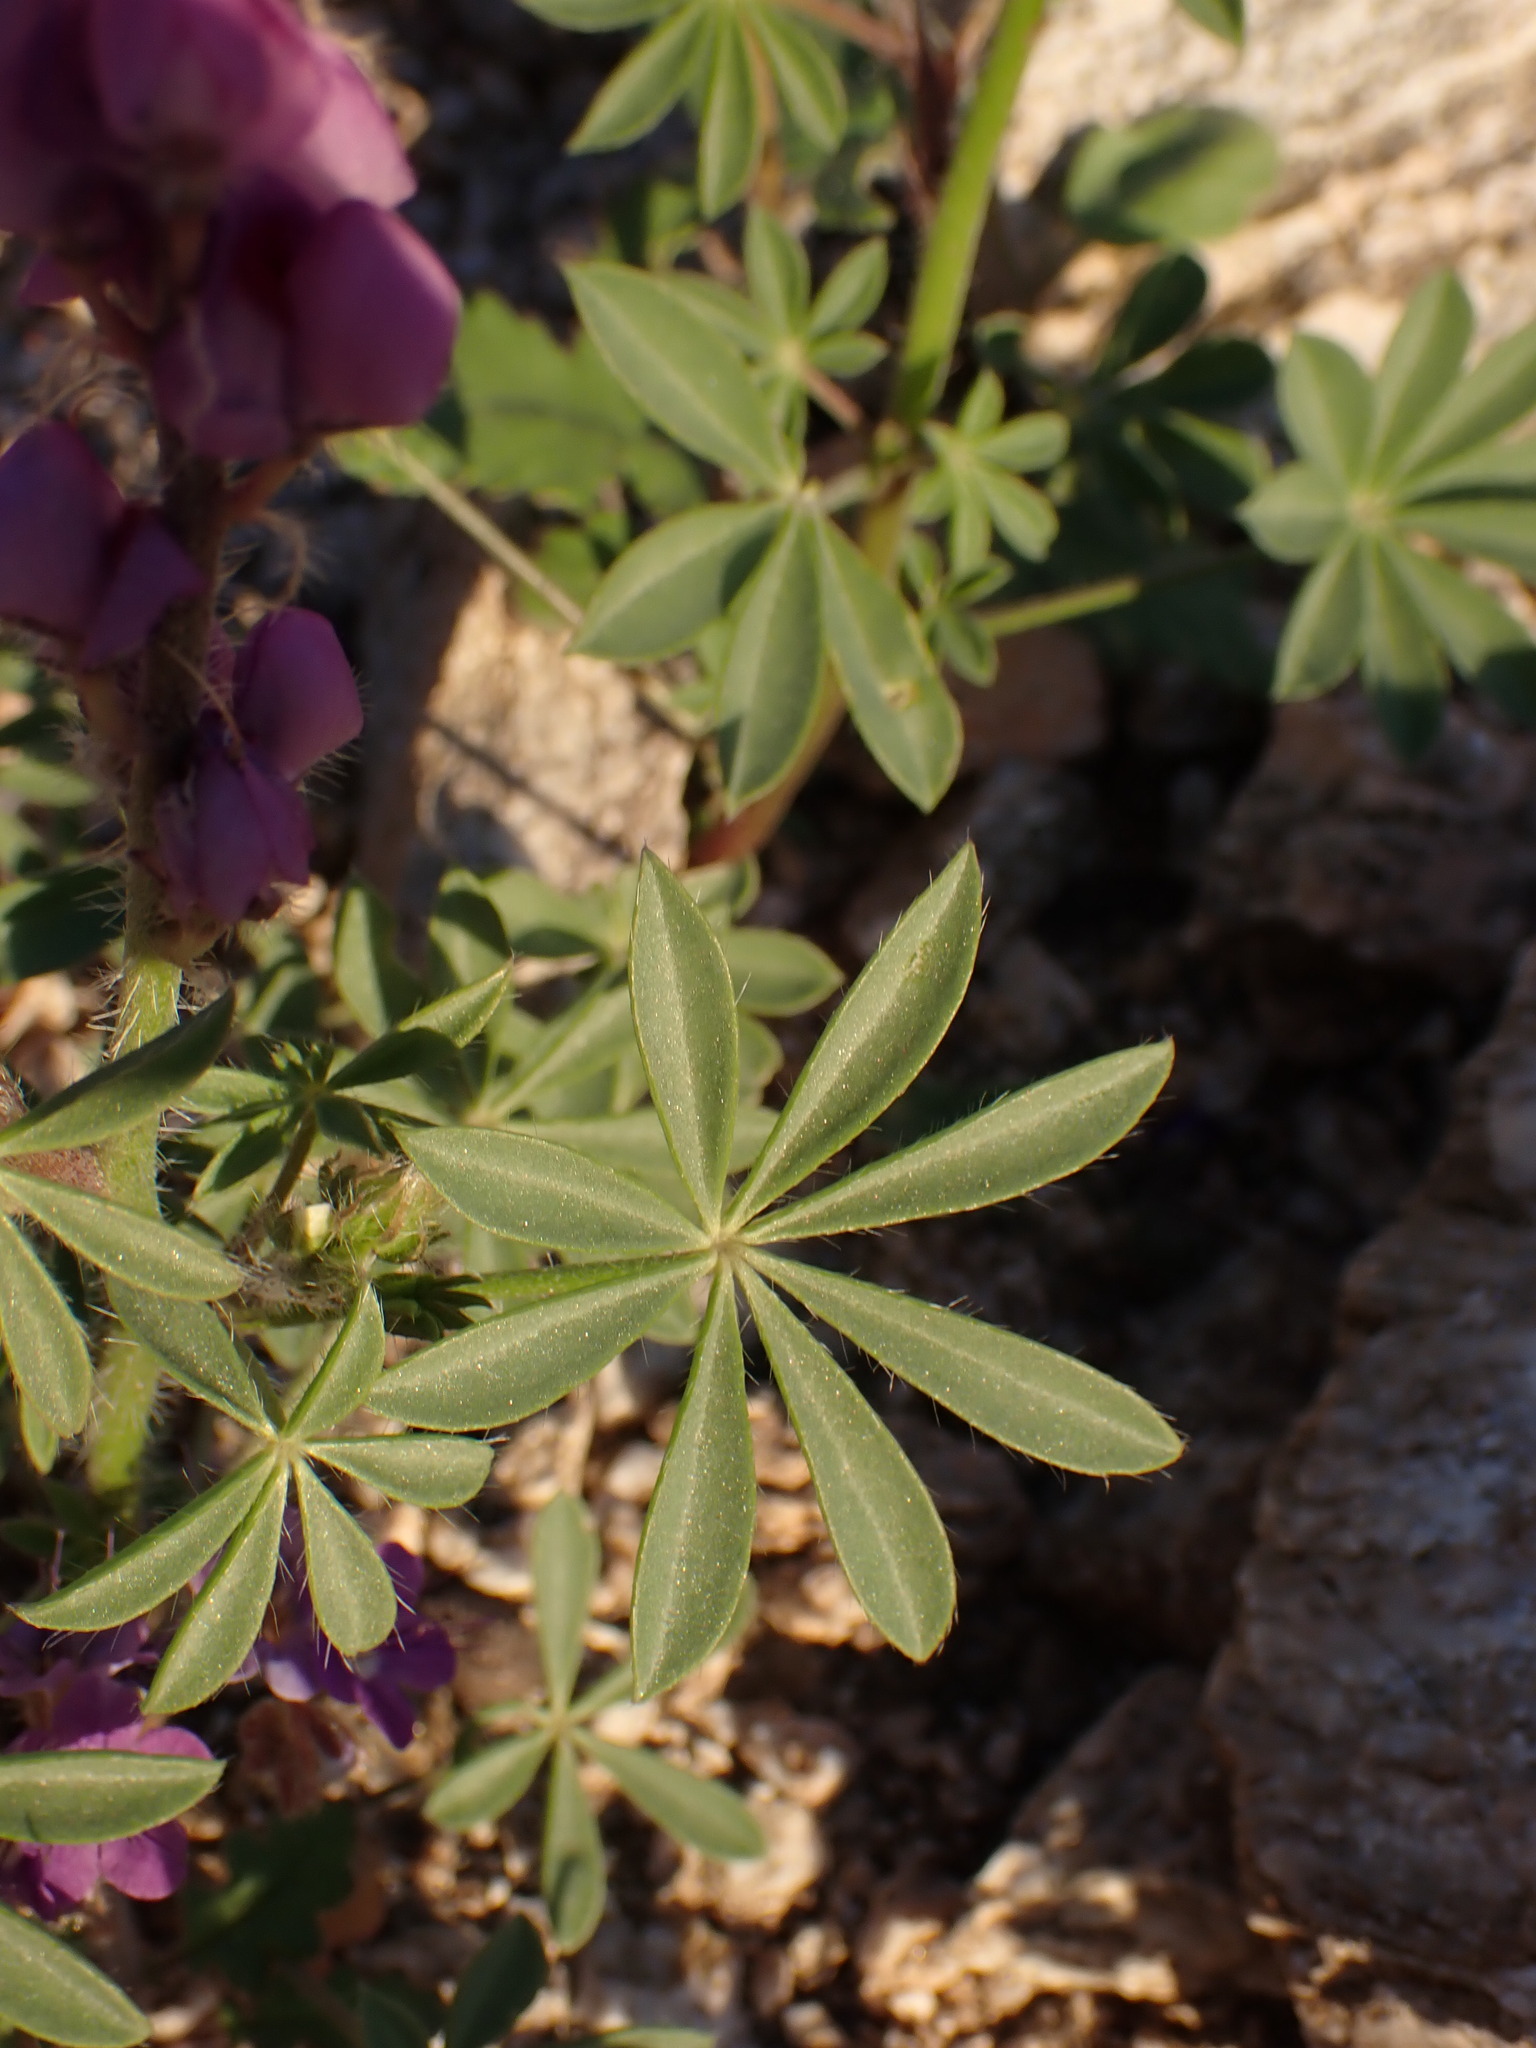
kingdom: Plantae
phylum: Tracheophyta
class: Magnoliopsida
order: Fabales
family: Fabaceae
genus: Lupinus
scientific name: Lupinus arizonicus
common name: Arizona lupine
